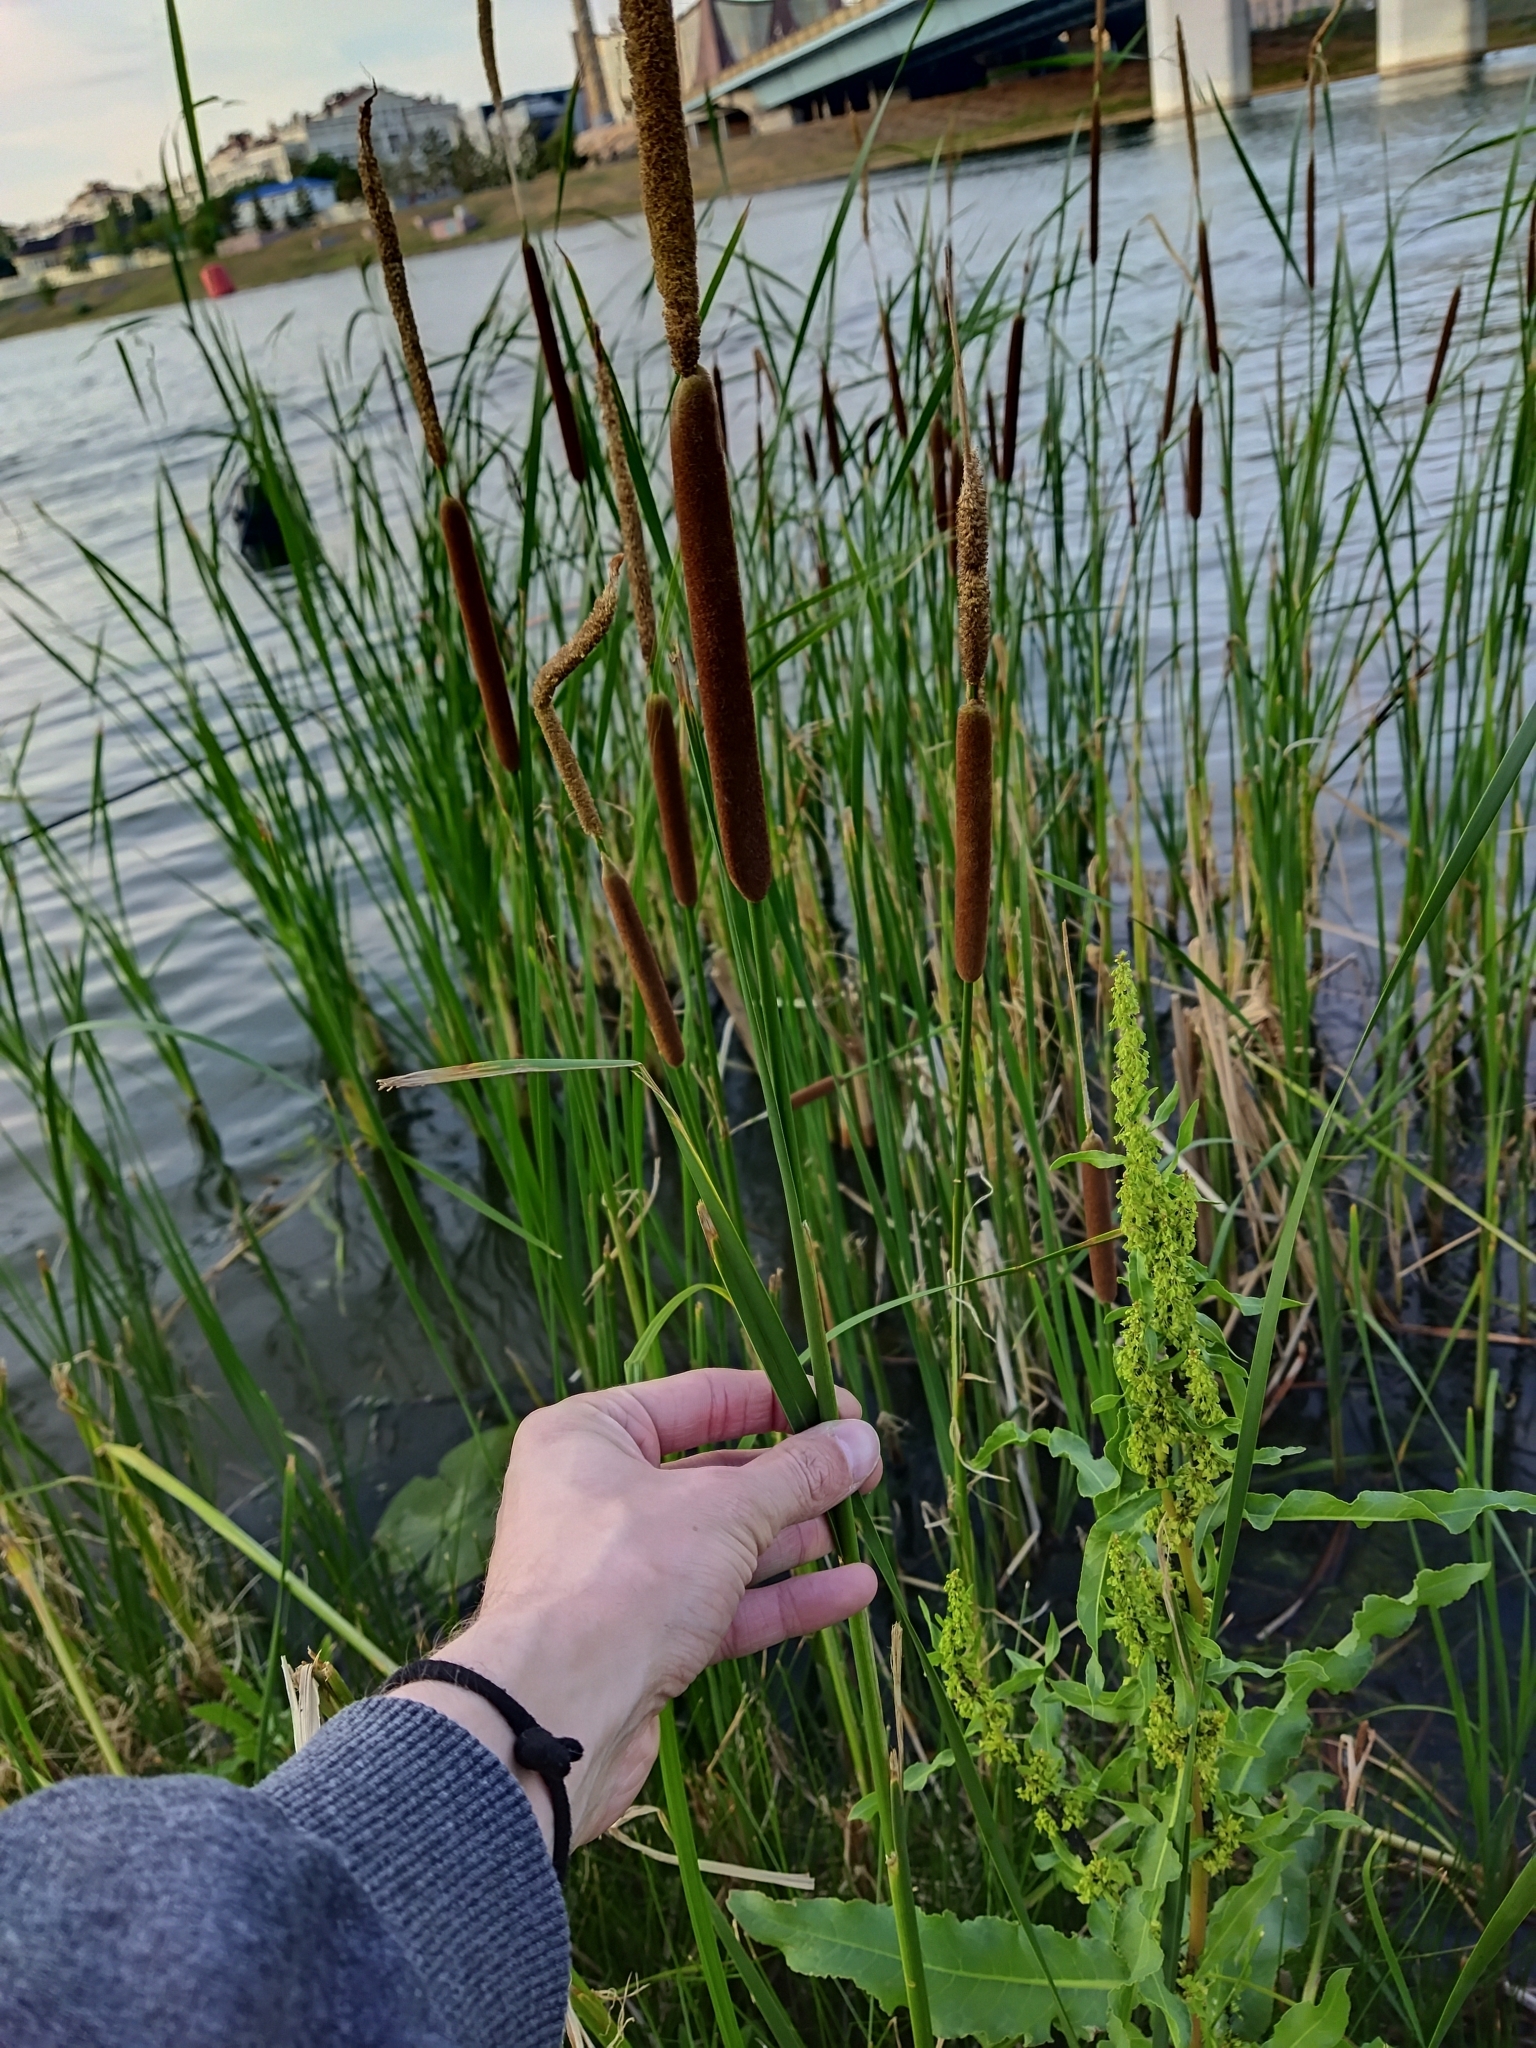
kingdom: Plantae
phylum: Tracheophyta
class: Liliopsida
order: Poales
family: Typhaceae
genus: Typha
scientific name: Typha angustifolia
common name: Lesser bulrush
